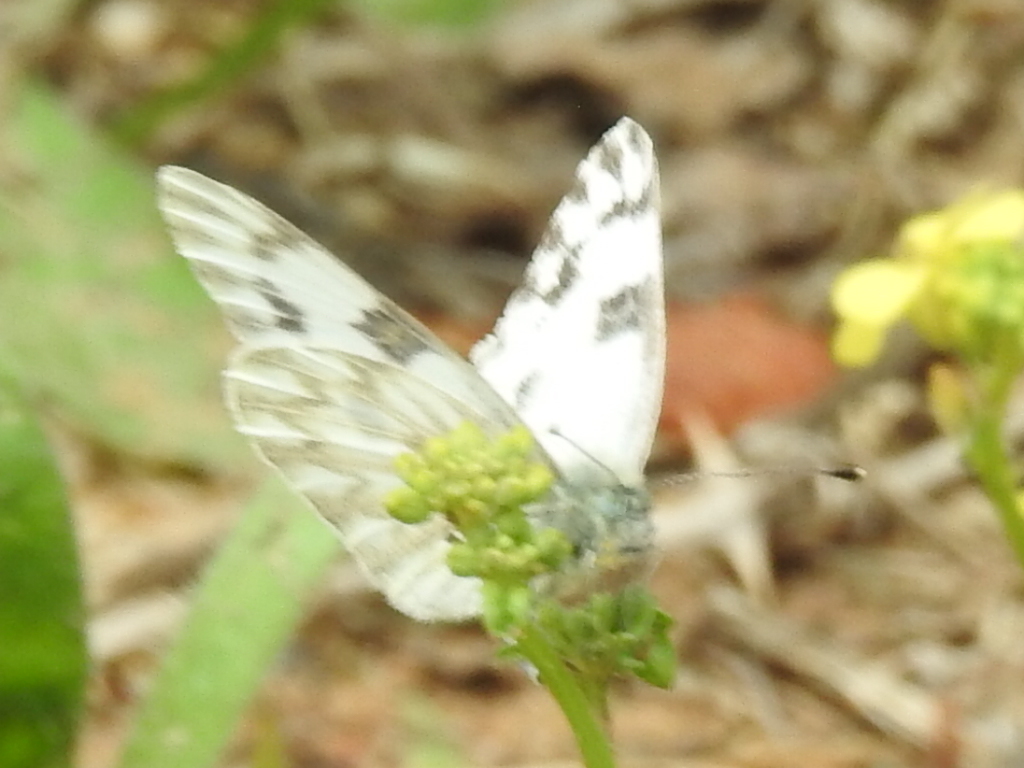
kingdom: Animalia
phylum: Arthropoda
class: Insecta
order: Lepidoptera
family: Pieridae
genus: Pontia
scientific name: Pontia protodice
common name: Checkered white
